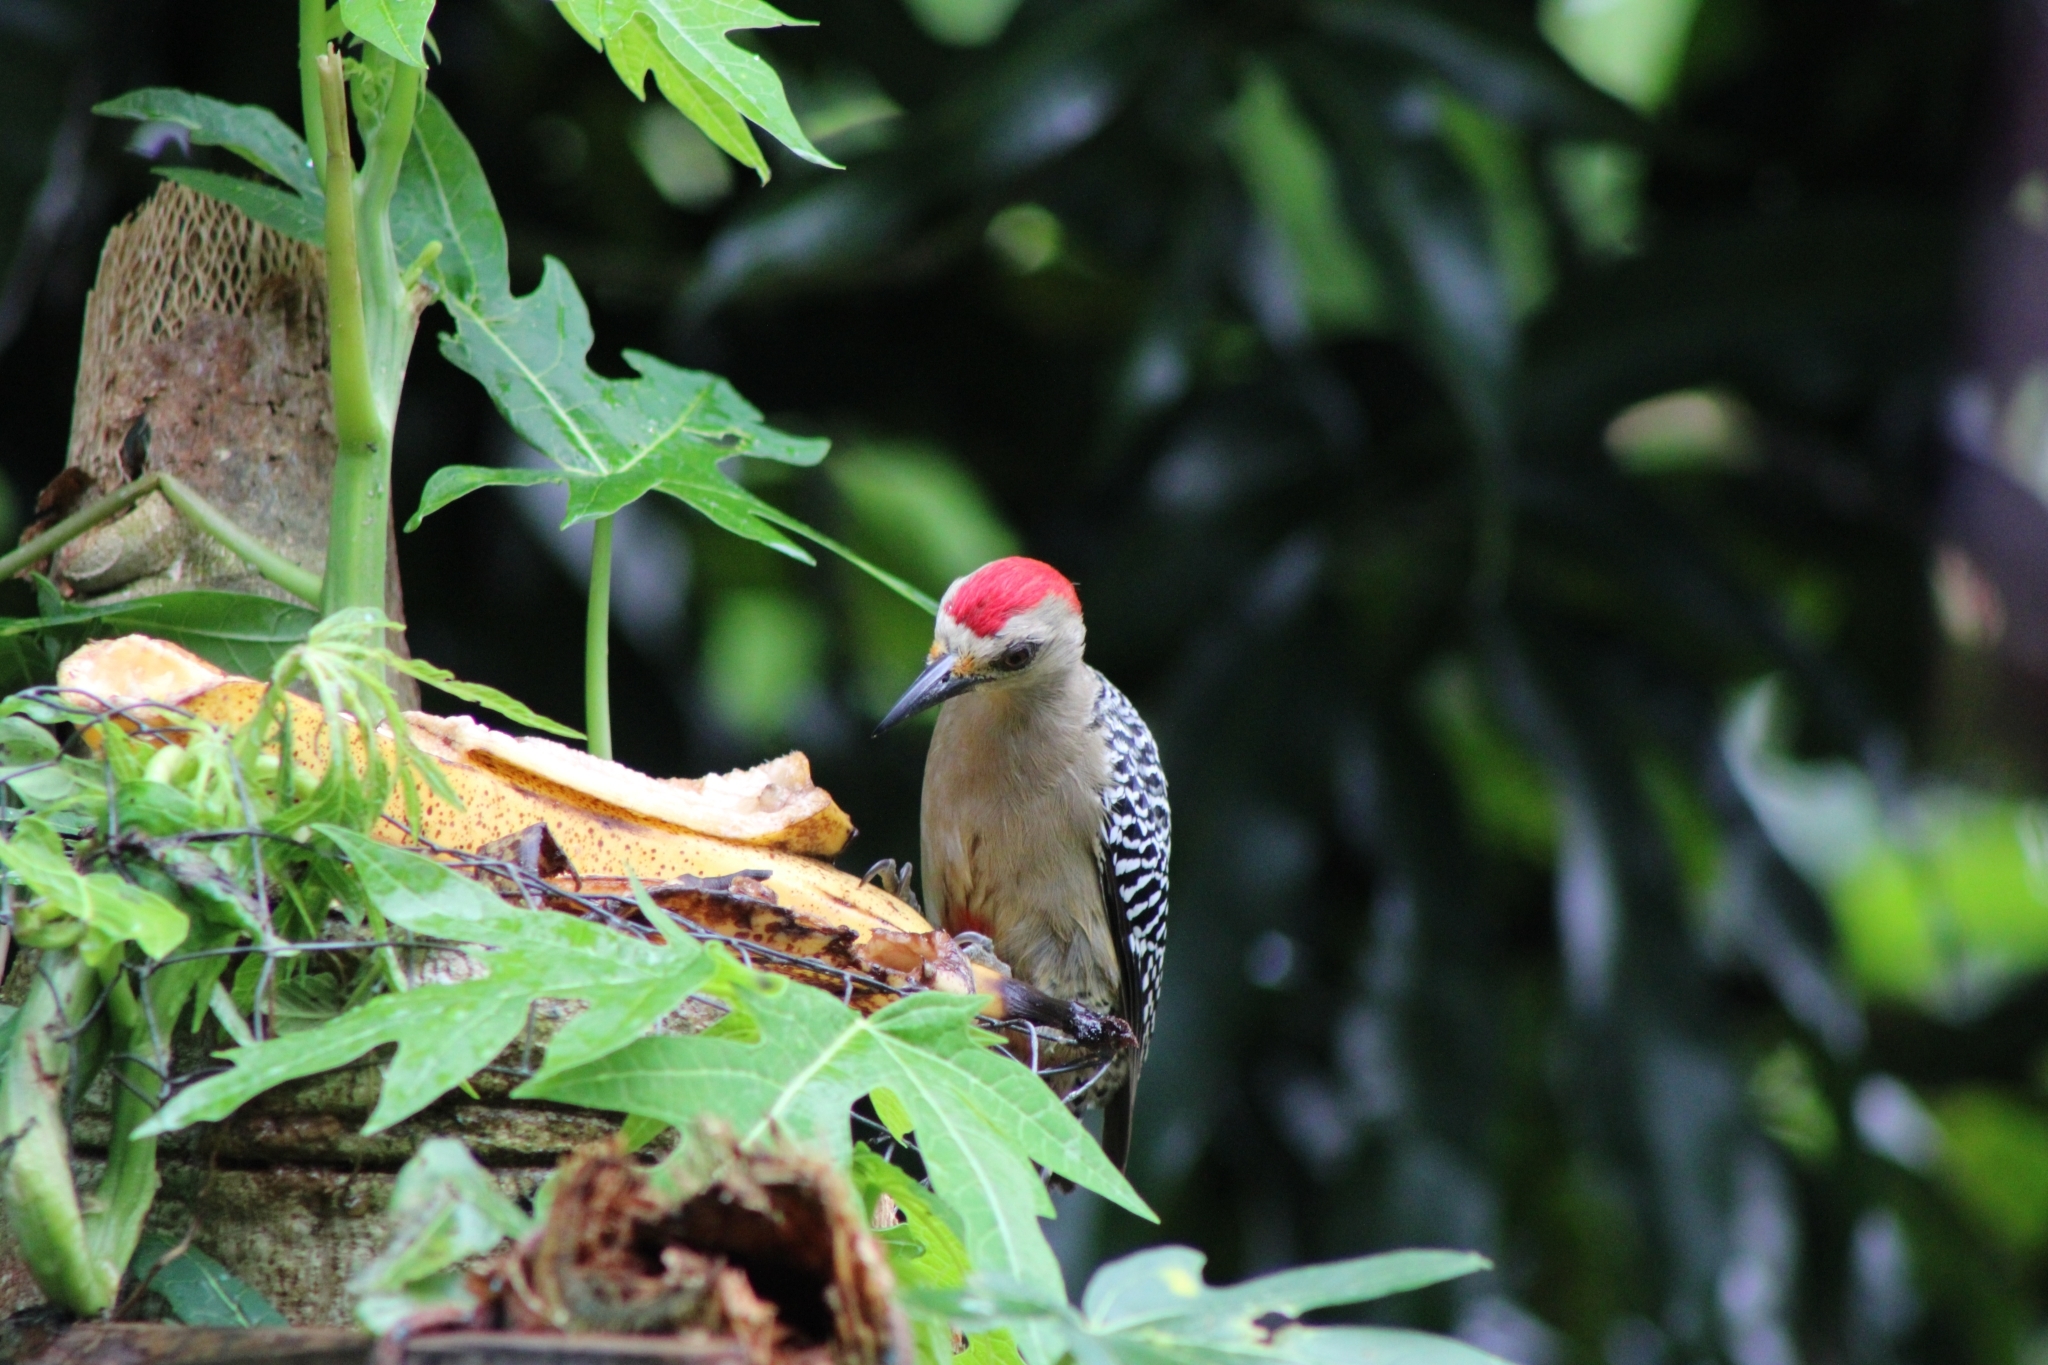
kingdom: Animalia
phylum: Chordata
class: Aves
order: Piciformes
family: Picidae
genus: Melanerpes
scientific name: Melanerpes rubricapillus
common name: Red-crowned woodpecker
